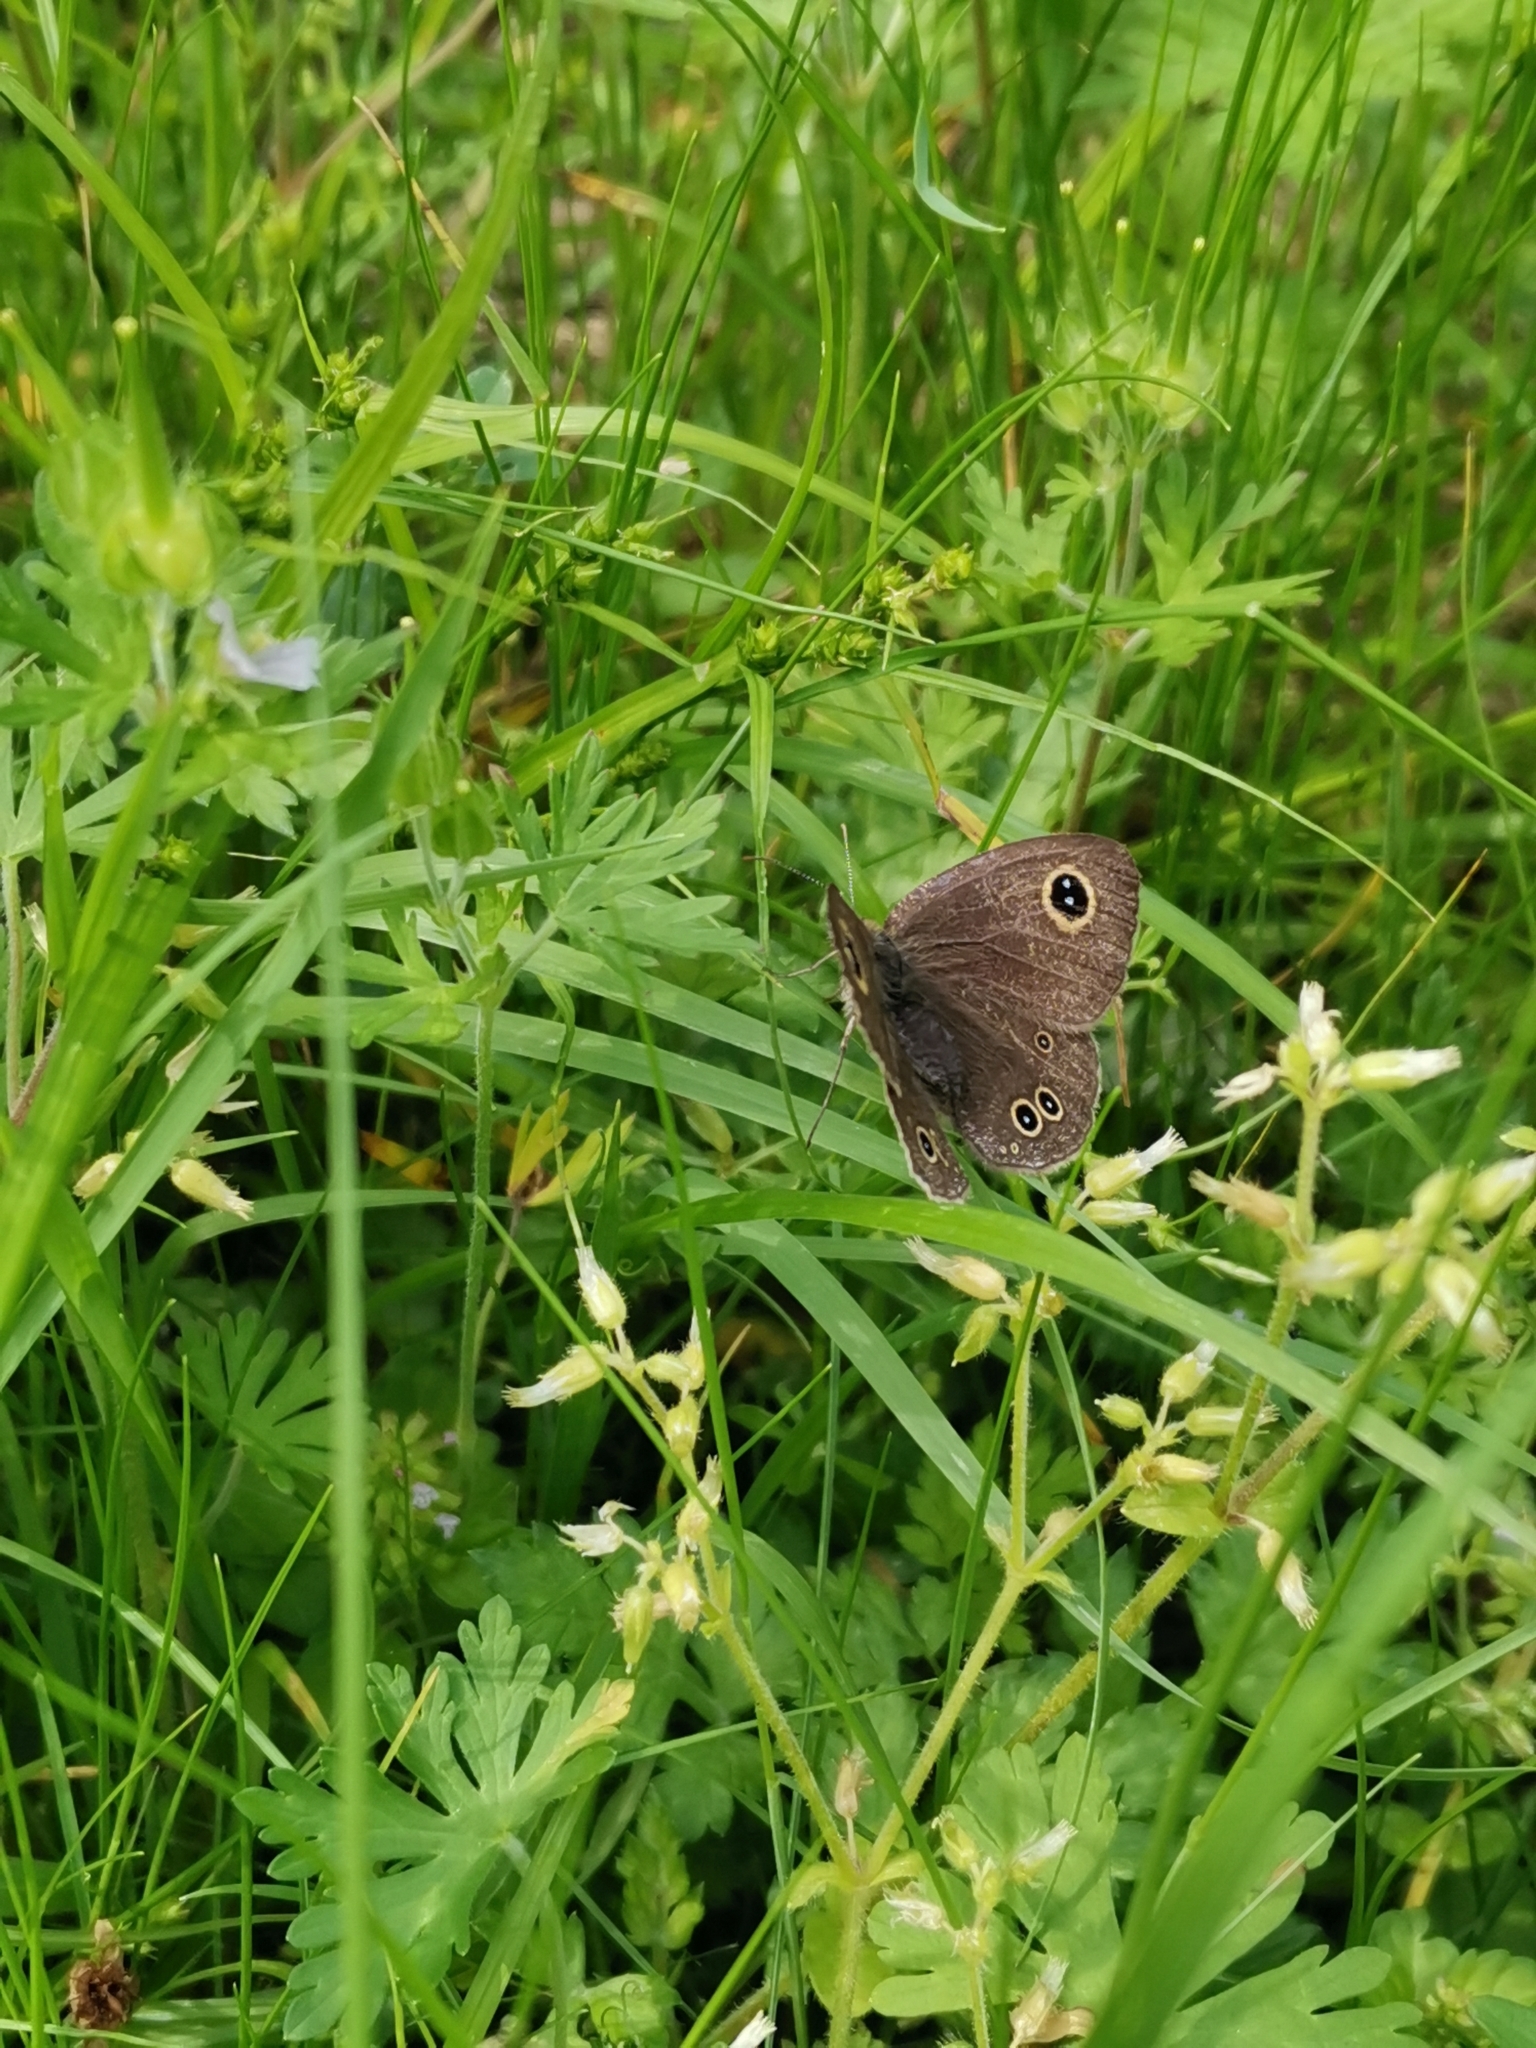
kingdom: Animalia
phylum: Arthropoda
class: Insecta
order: Lepidoptera
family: Nymphalidae
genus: Ypthima
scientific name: Ypthima argus
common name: Common fivering
